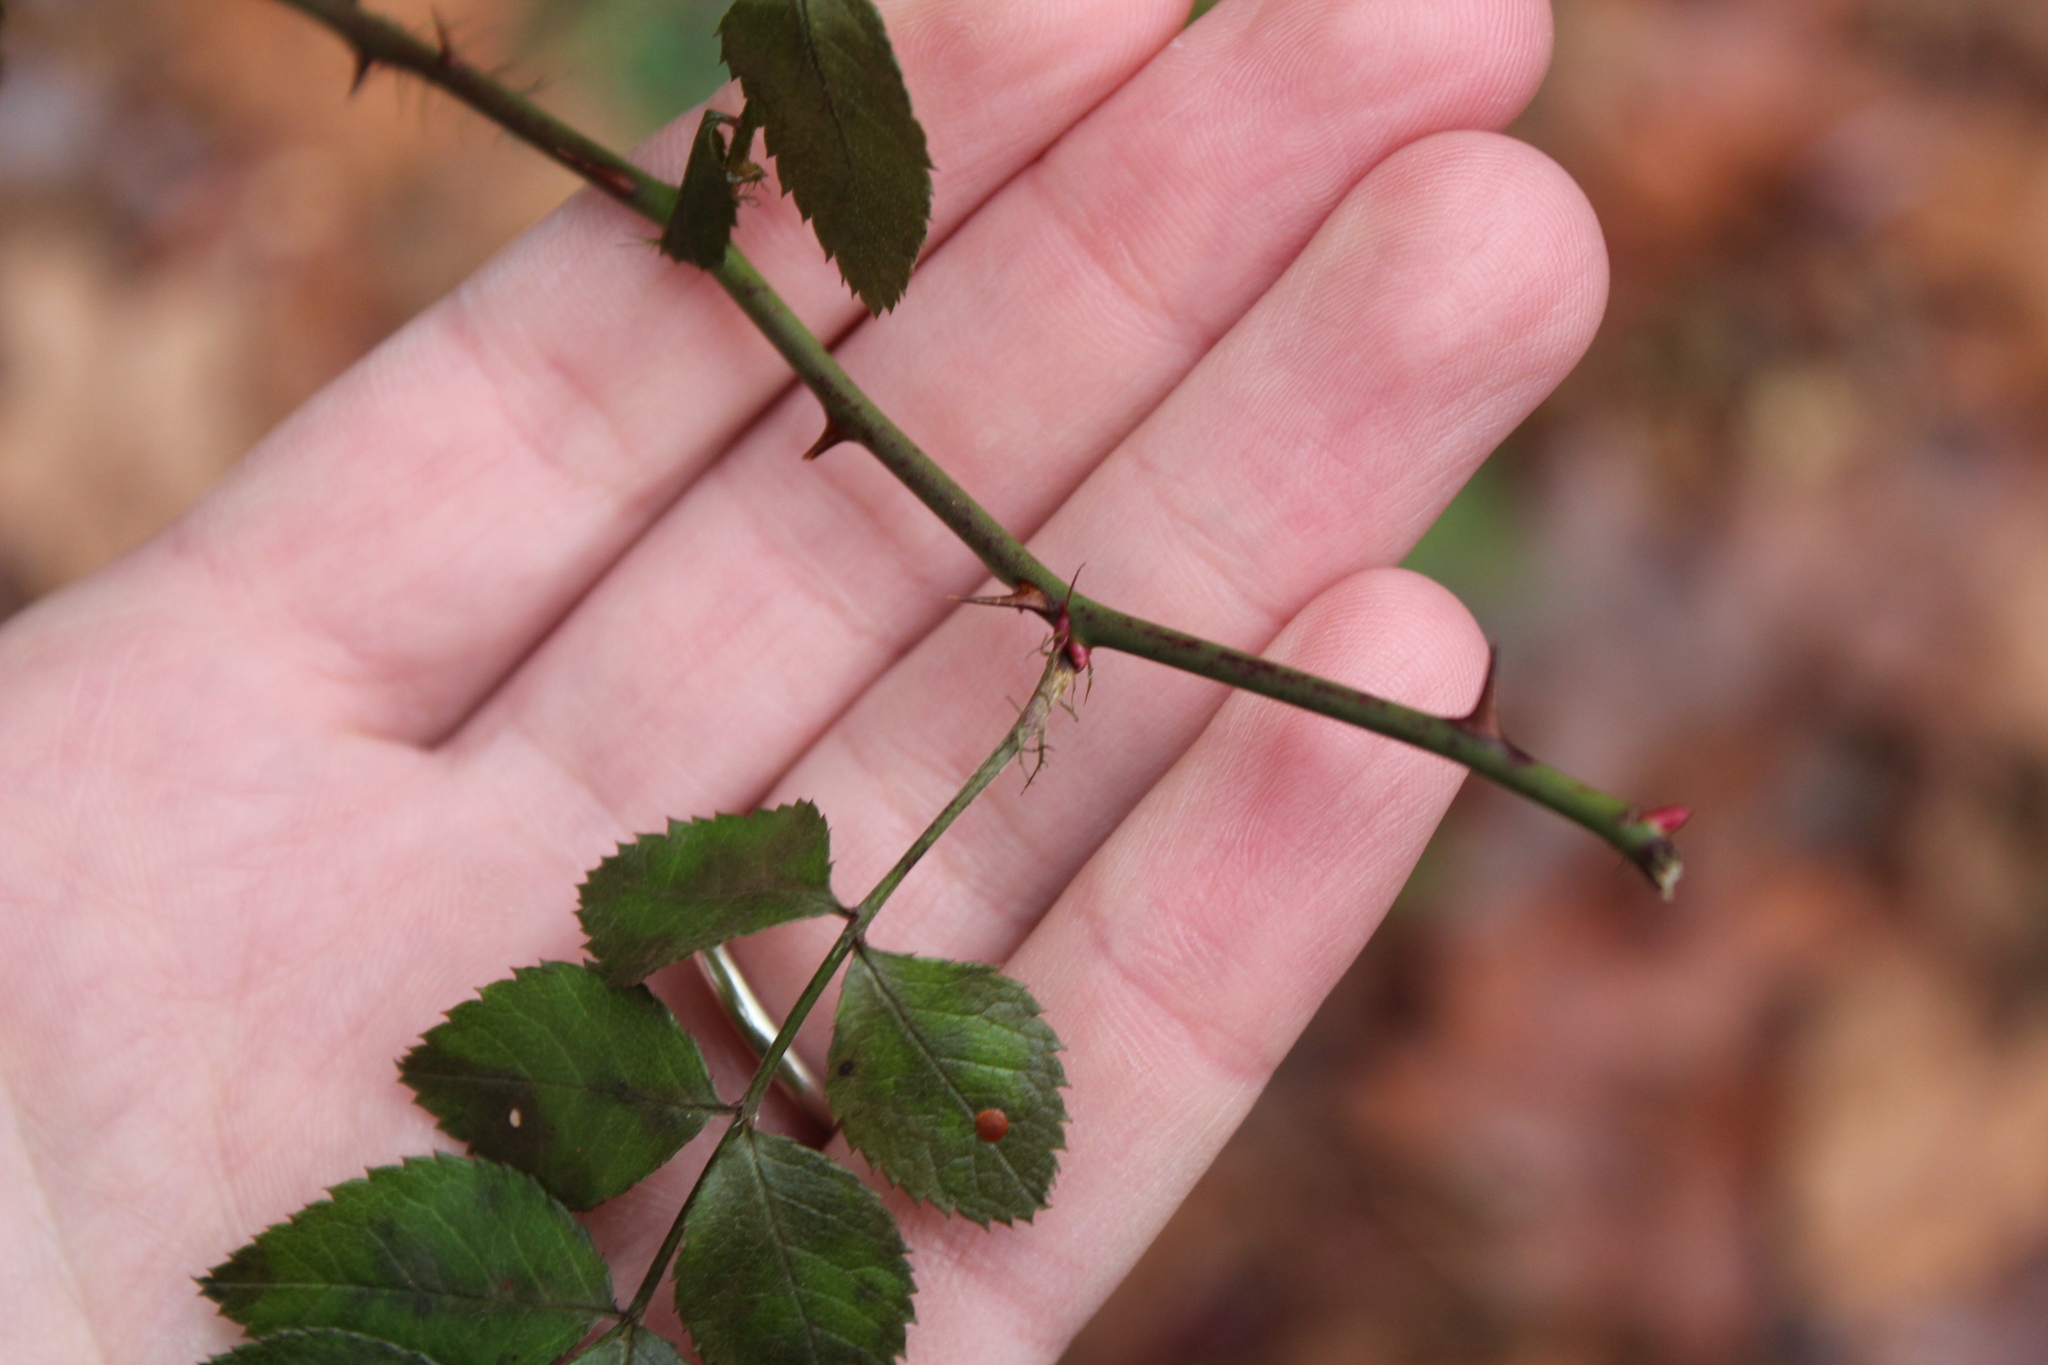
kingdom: Plantae
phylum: Tracheophyta
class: Magnoliopsida
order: Rosales
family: Rosaceae
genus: Rosa
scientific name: Rosa multiflora
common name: Multiflora rose
